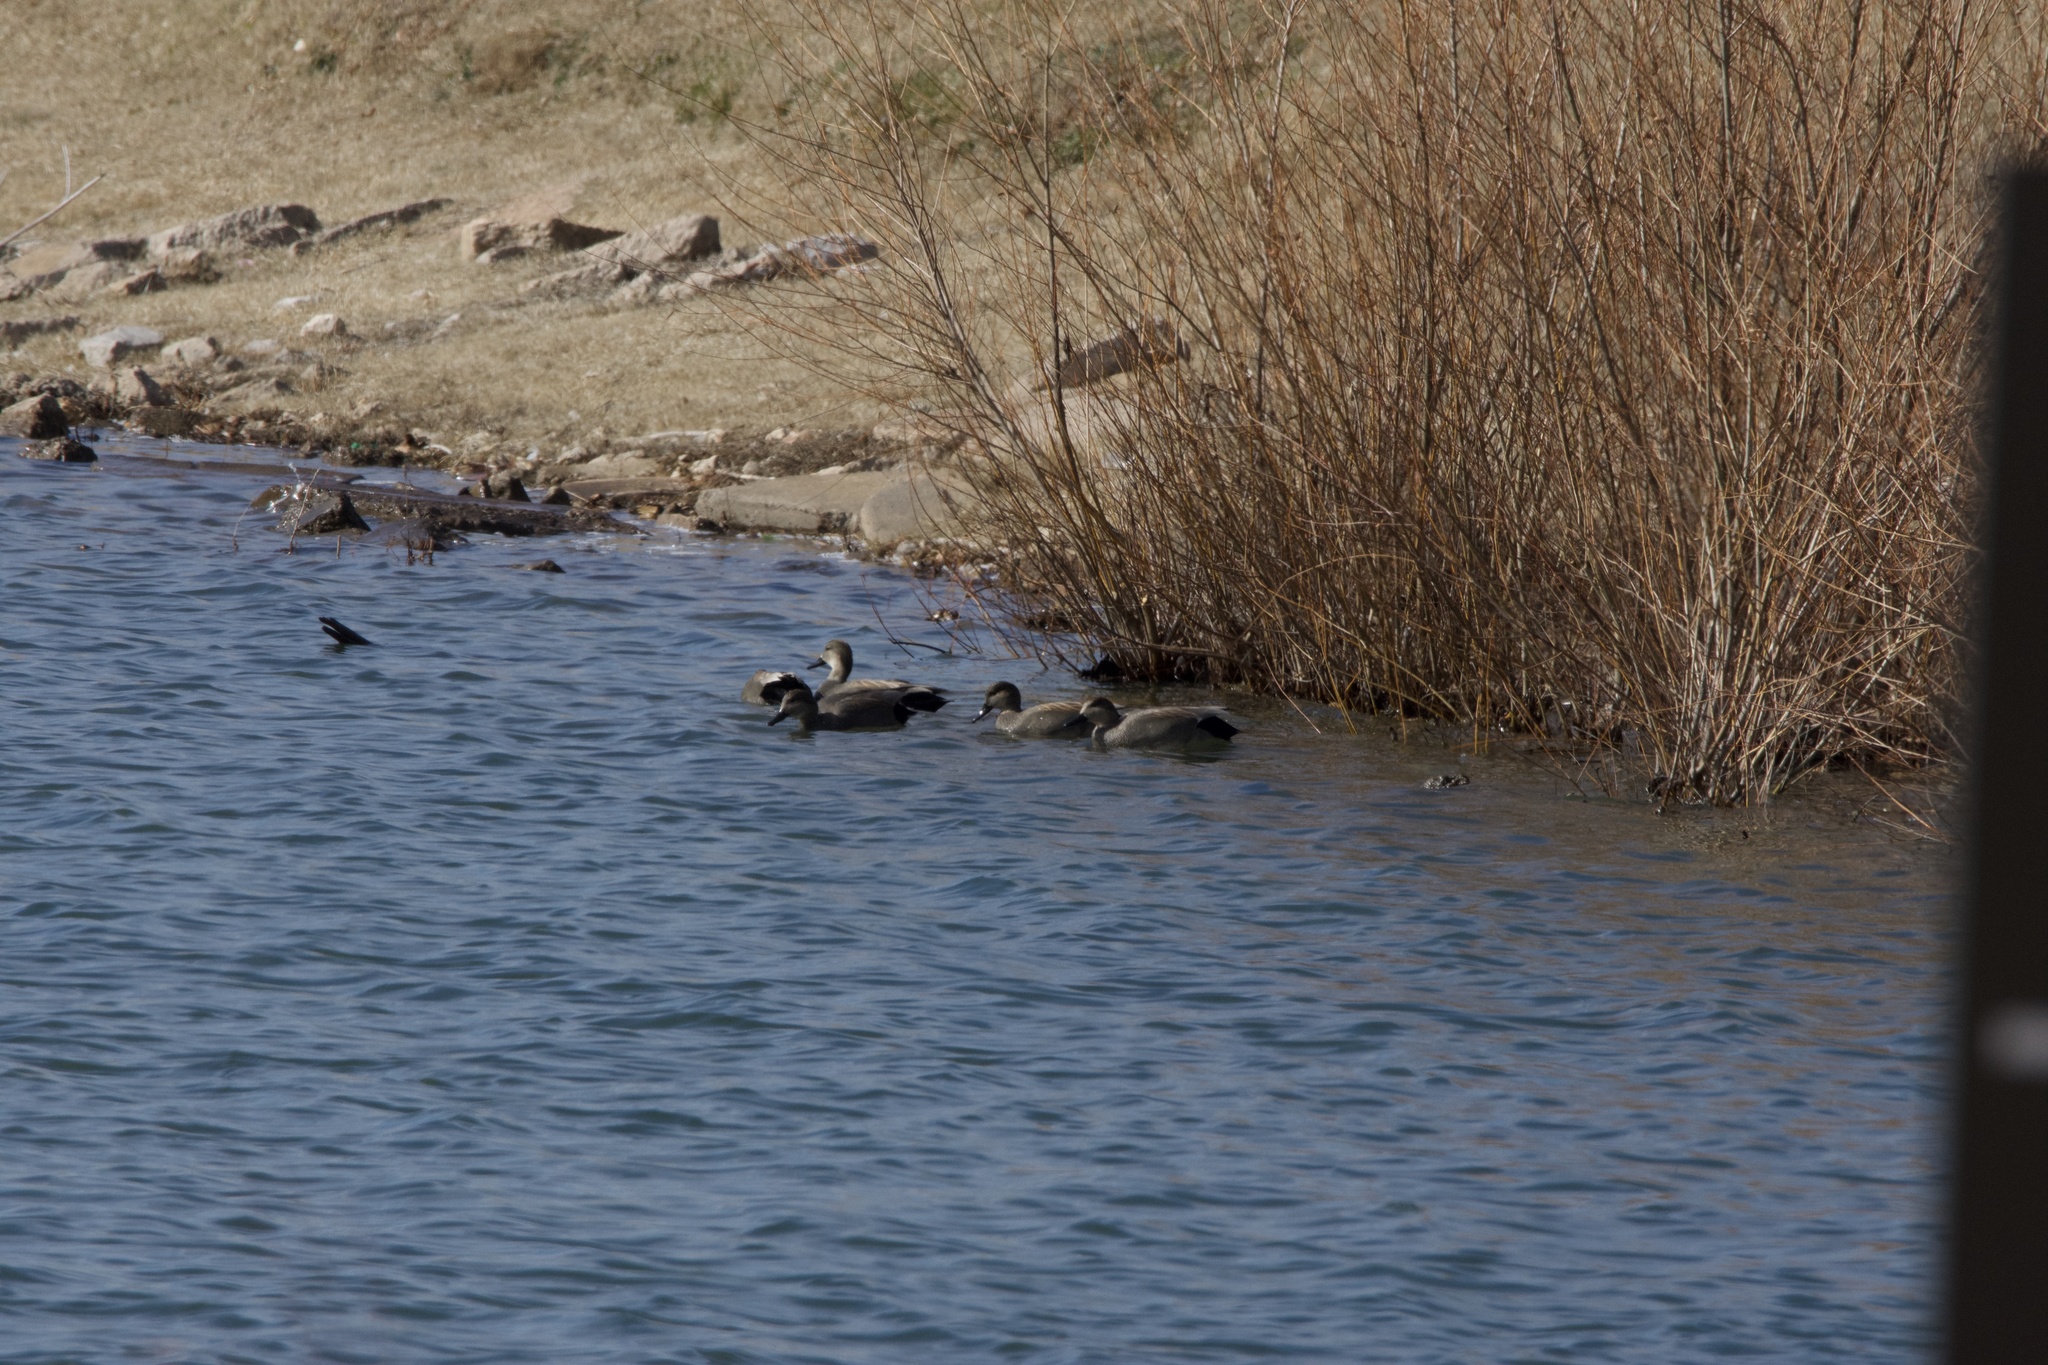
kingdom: Animalia
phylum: Chordata
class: Aves
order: Anseriformes
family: Anatidae
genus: Mareca
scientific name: Mareca strepera
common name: Gadwall
